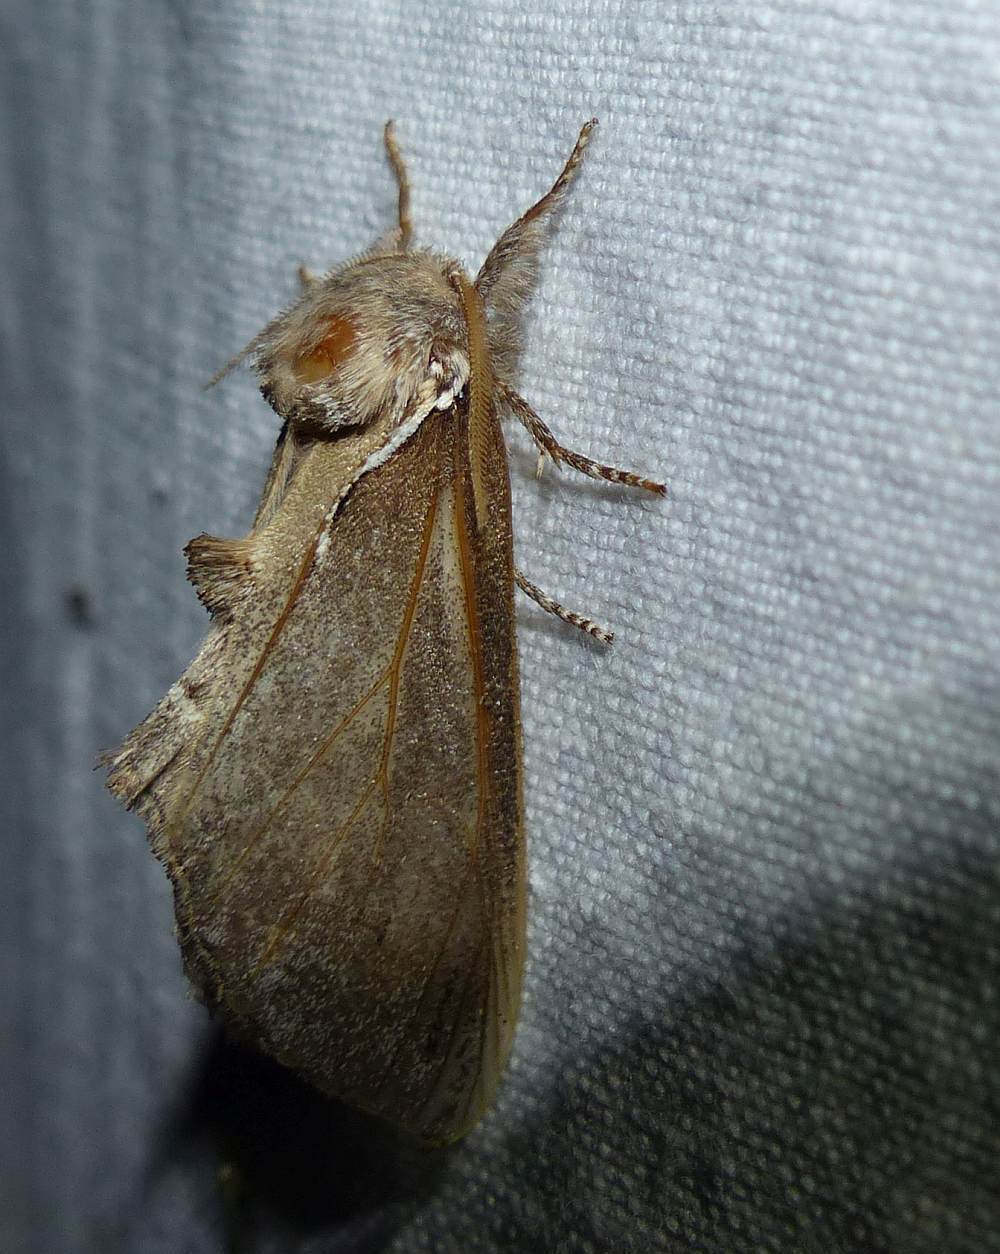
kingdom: Animalia
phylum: Arthropoda
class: Insecta
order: Lepidoptera
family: Notodontidae
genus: Pheosidea
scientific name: Pheosidea elegans
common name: Elegant prominent
